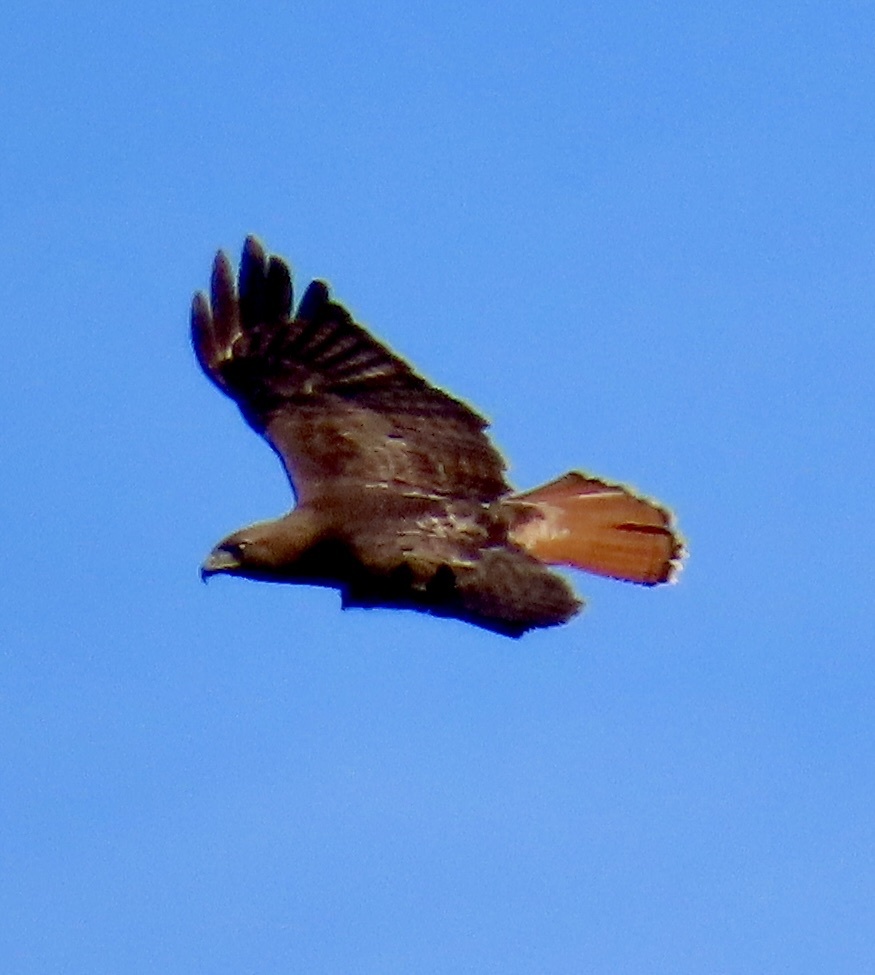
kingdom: Animalia
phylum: Chordata
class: Aves
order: Accipitriformes
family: Accipitridae
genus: Buteo
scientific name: Buteo jamaicensis
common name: Red-tailed hawk
